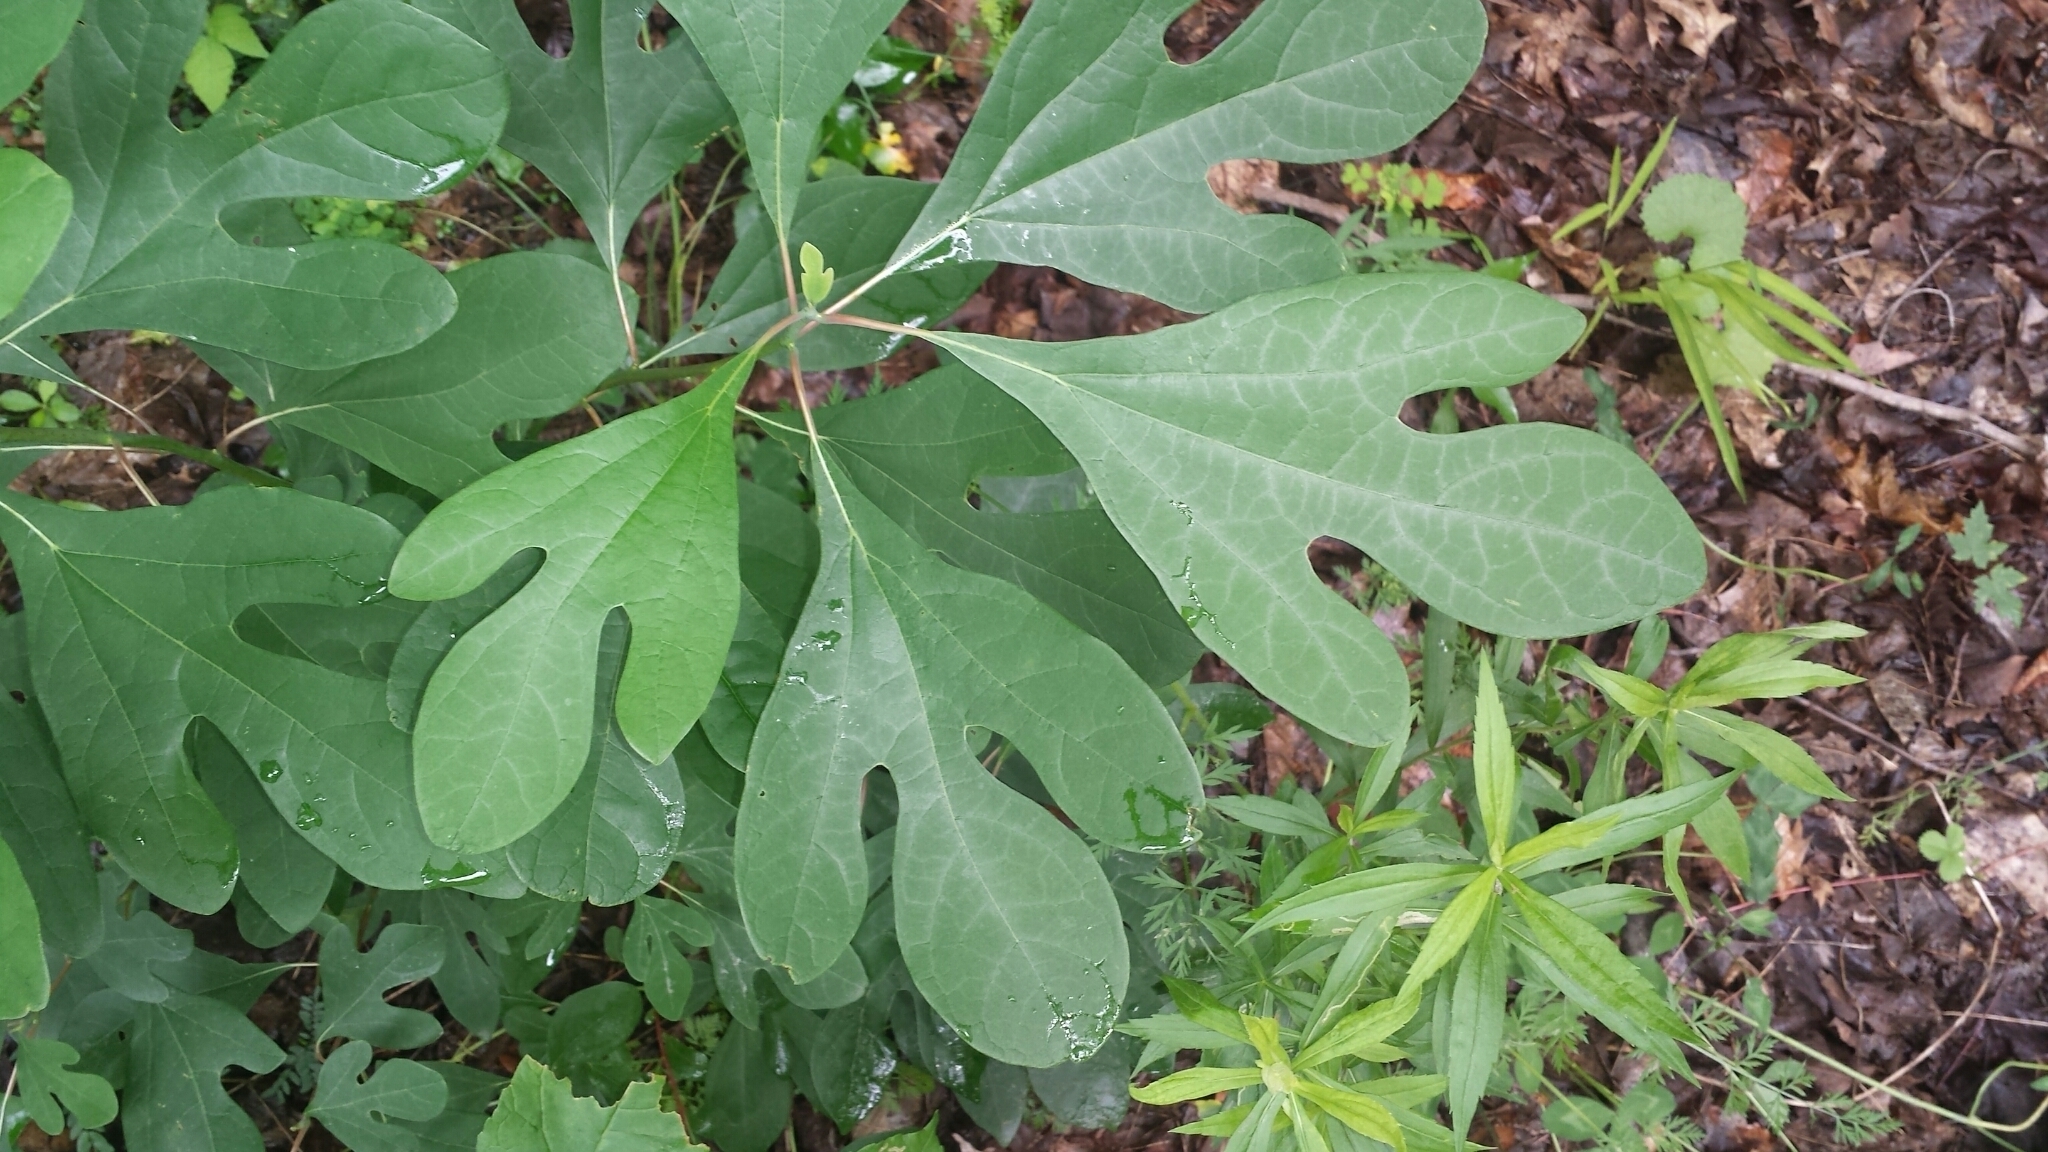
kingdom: Plantae
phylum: Tracheophyta
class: Magnoliopsida
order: Laurales
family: Lauraceae
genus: Sassafras
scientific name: Sassafras albidum
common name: Sassafras
